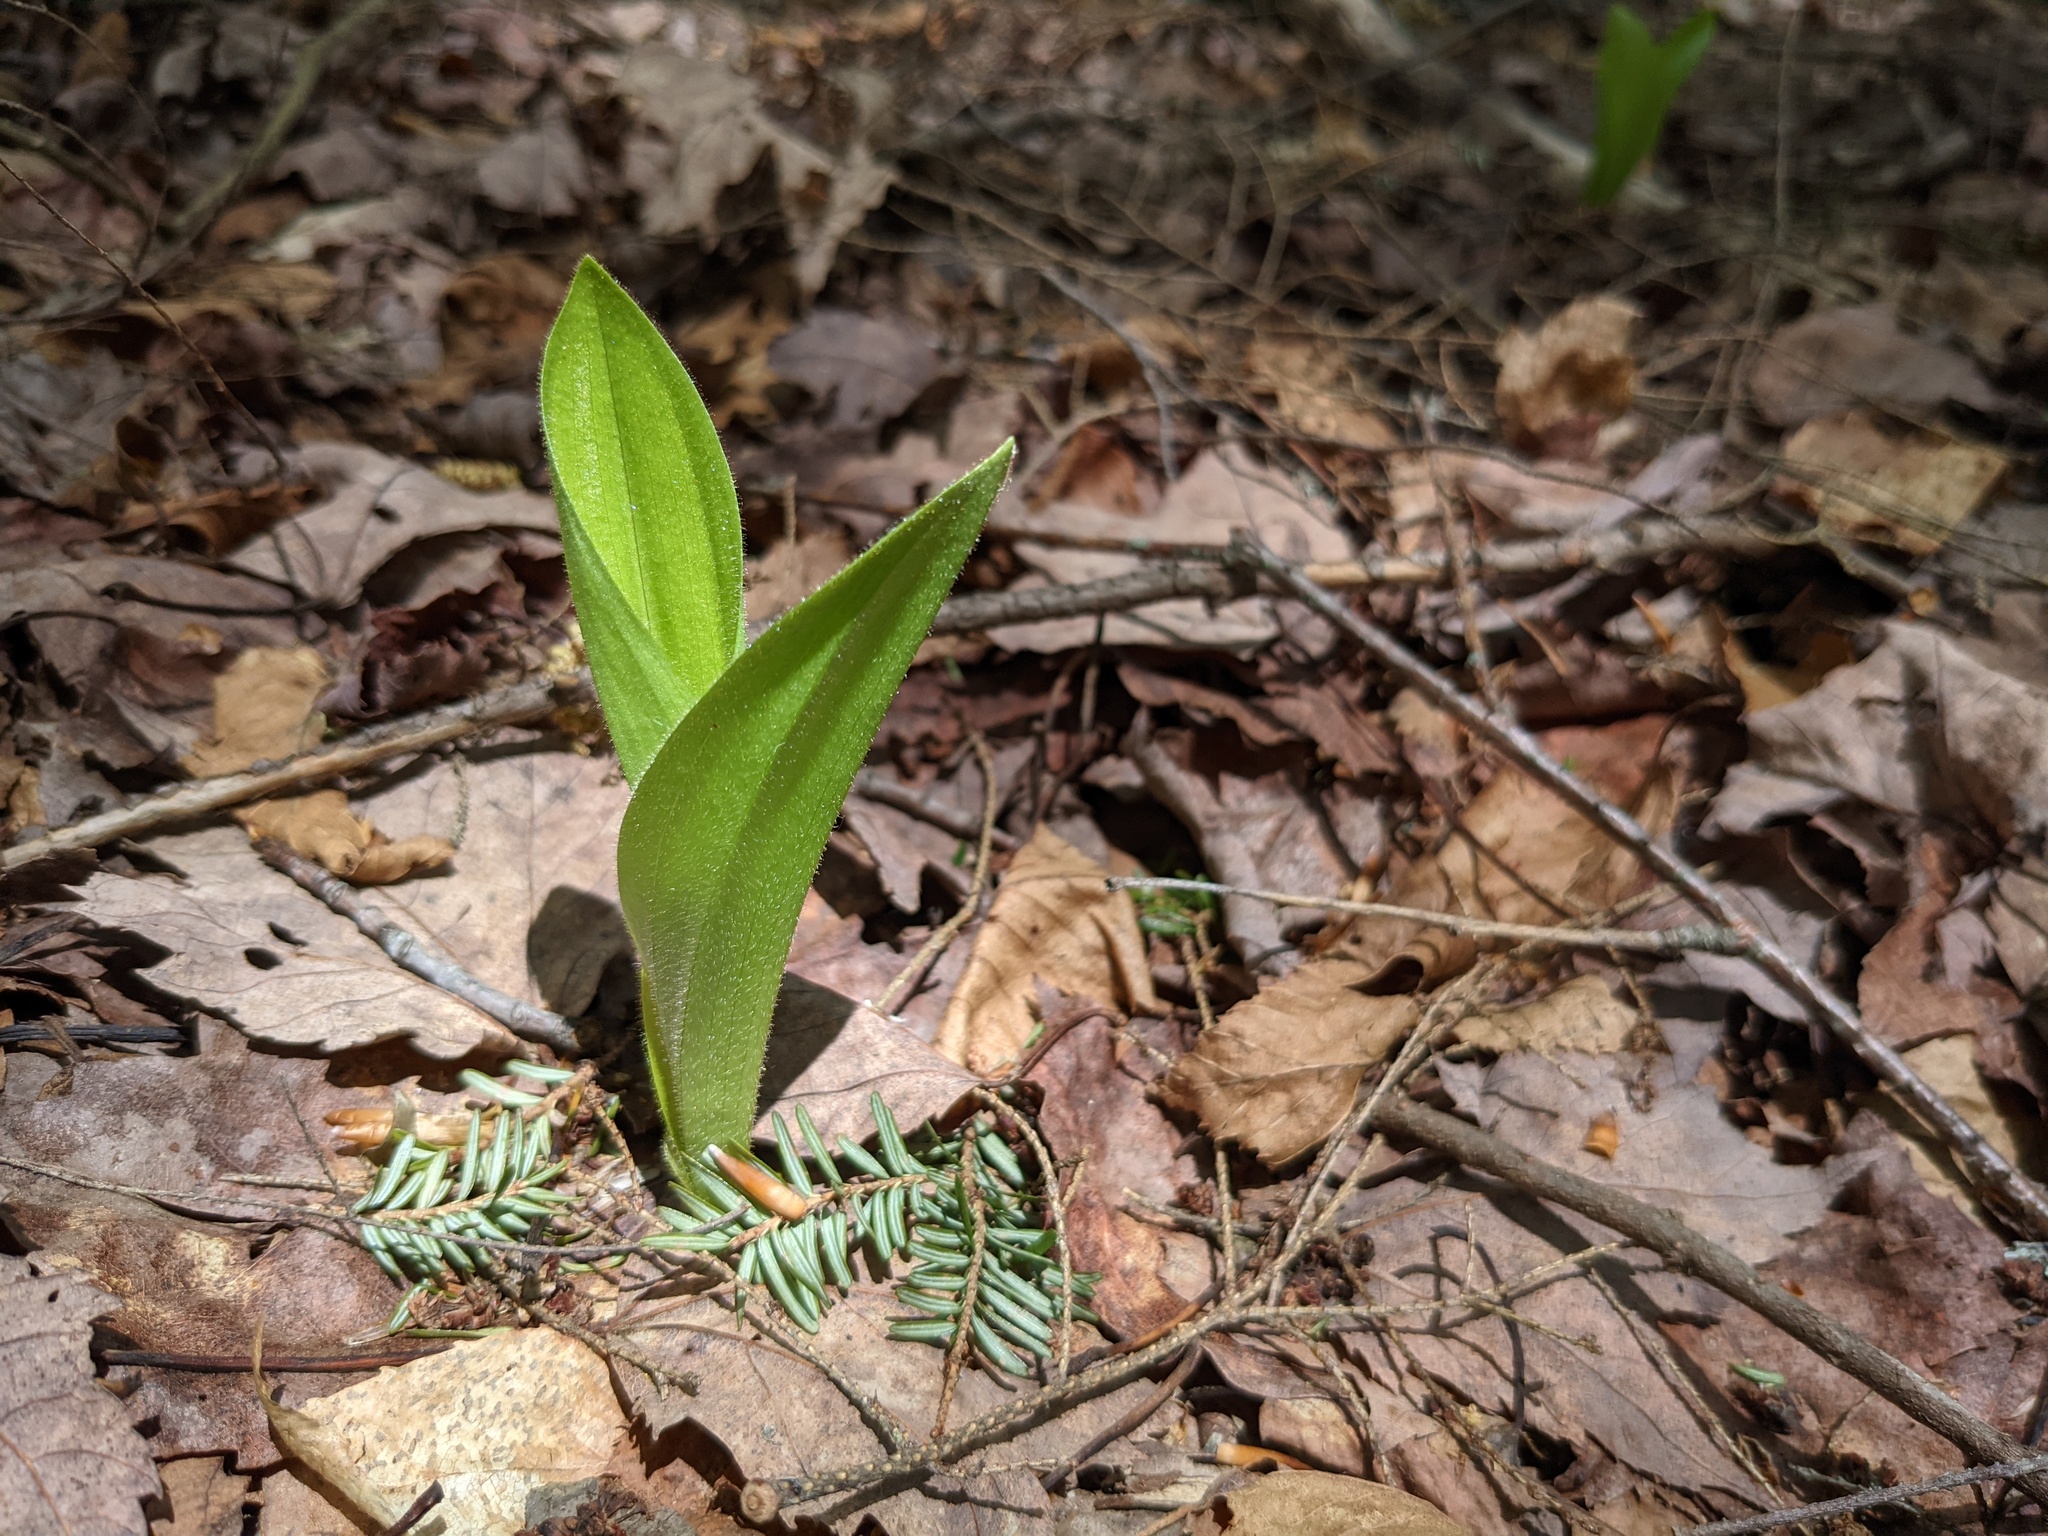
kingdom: Plantae
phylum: Tracheophyta
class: Liliopsida
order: Asparagales
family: Orchidaceae
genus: Cypripedium
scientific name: Cypripedium acaule
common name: Pink lady's-slipper
